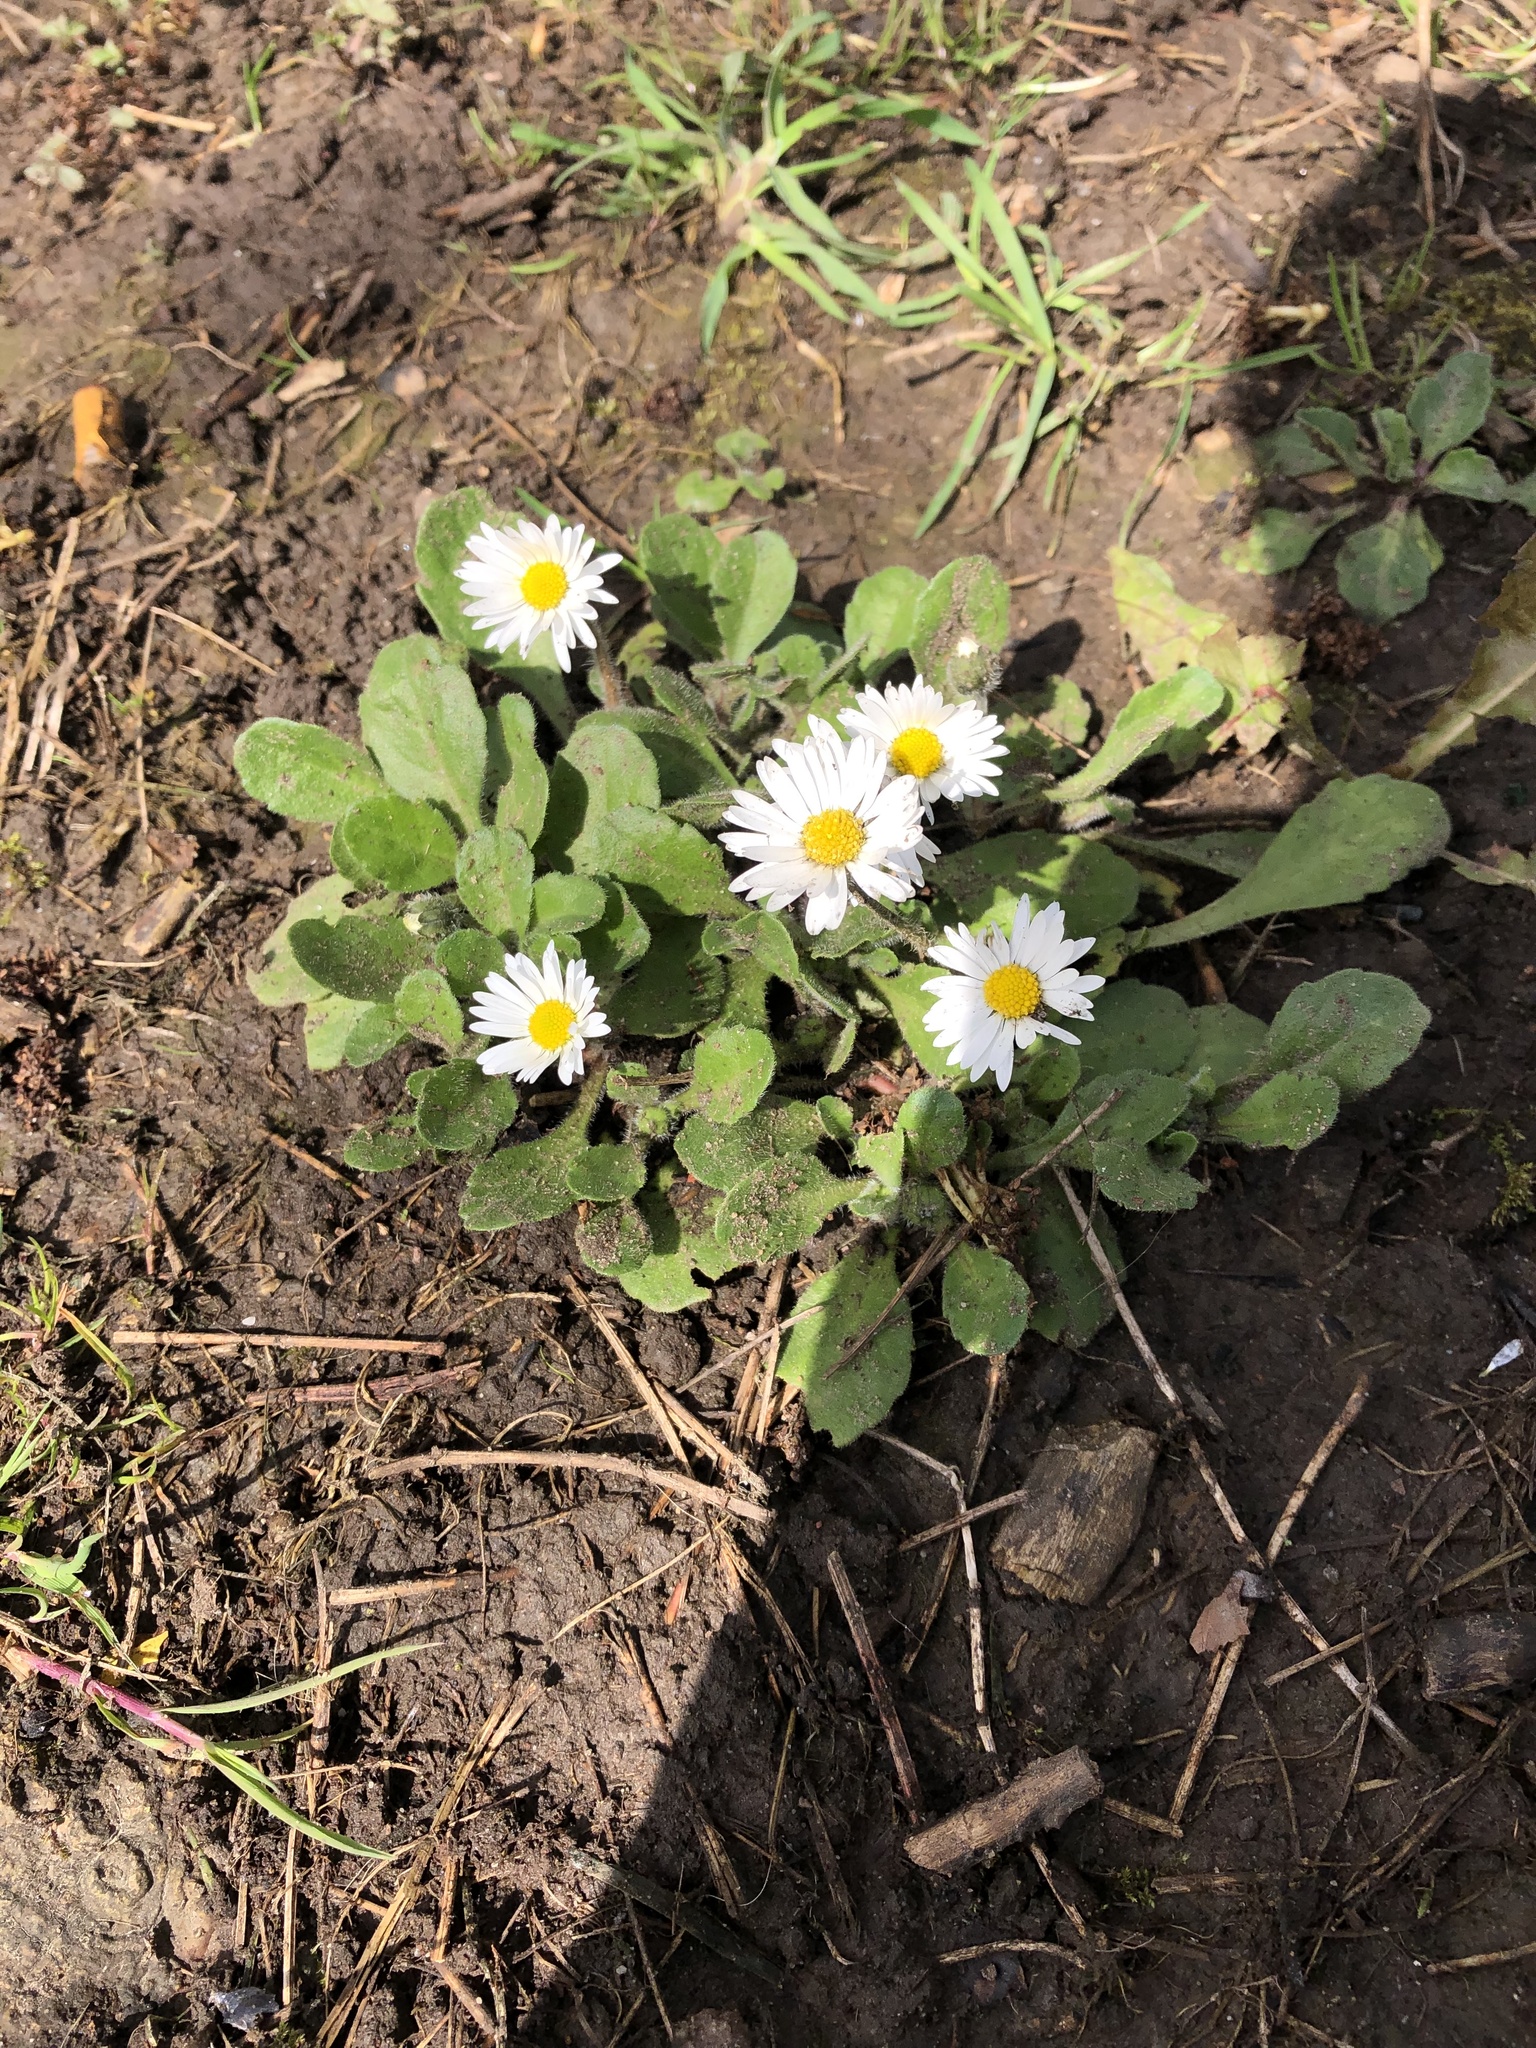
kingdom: Plantae
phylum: Tracheophyta
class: Magnoliopsida
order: Asterales
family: Asteraceae
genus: Bellis
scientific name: Bellis perennis
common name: Lawndaisy
